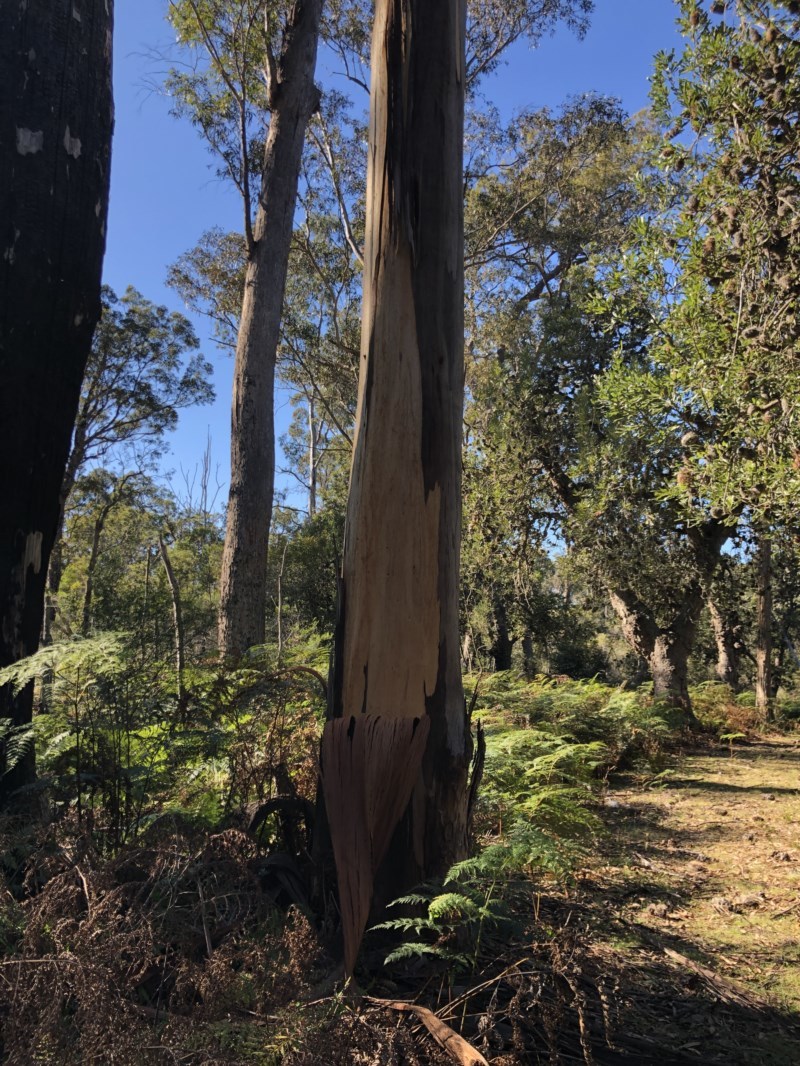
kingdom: Plantae
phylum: Tracheophyta
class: Magnoliopsida
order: Myrtales
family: Myrtaceae
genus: Eucalyptus
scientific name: Eucalyptus cypellocarpa
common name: Mountain grey gum
